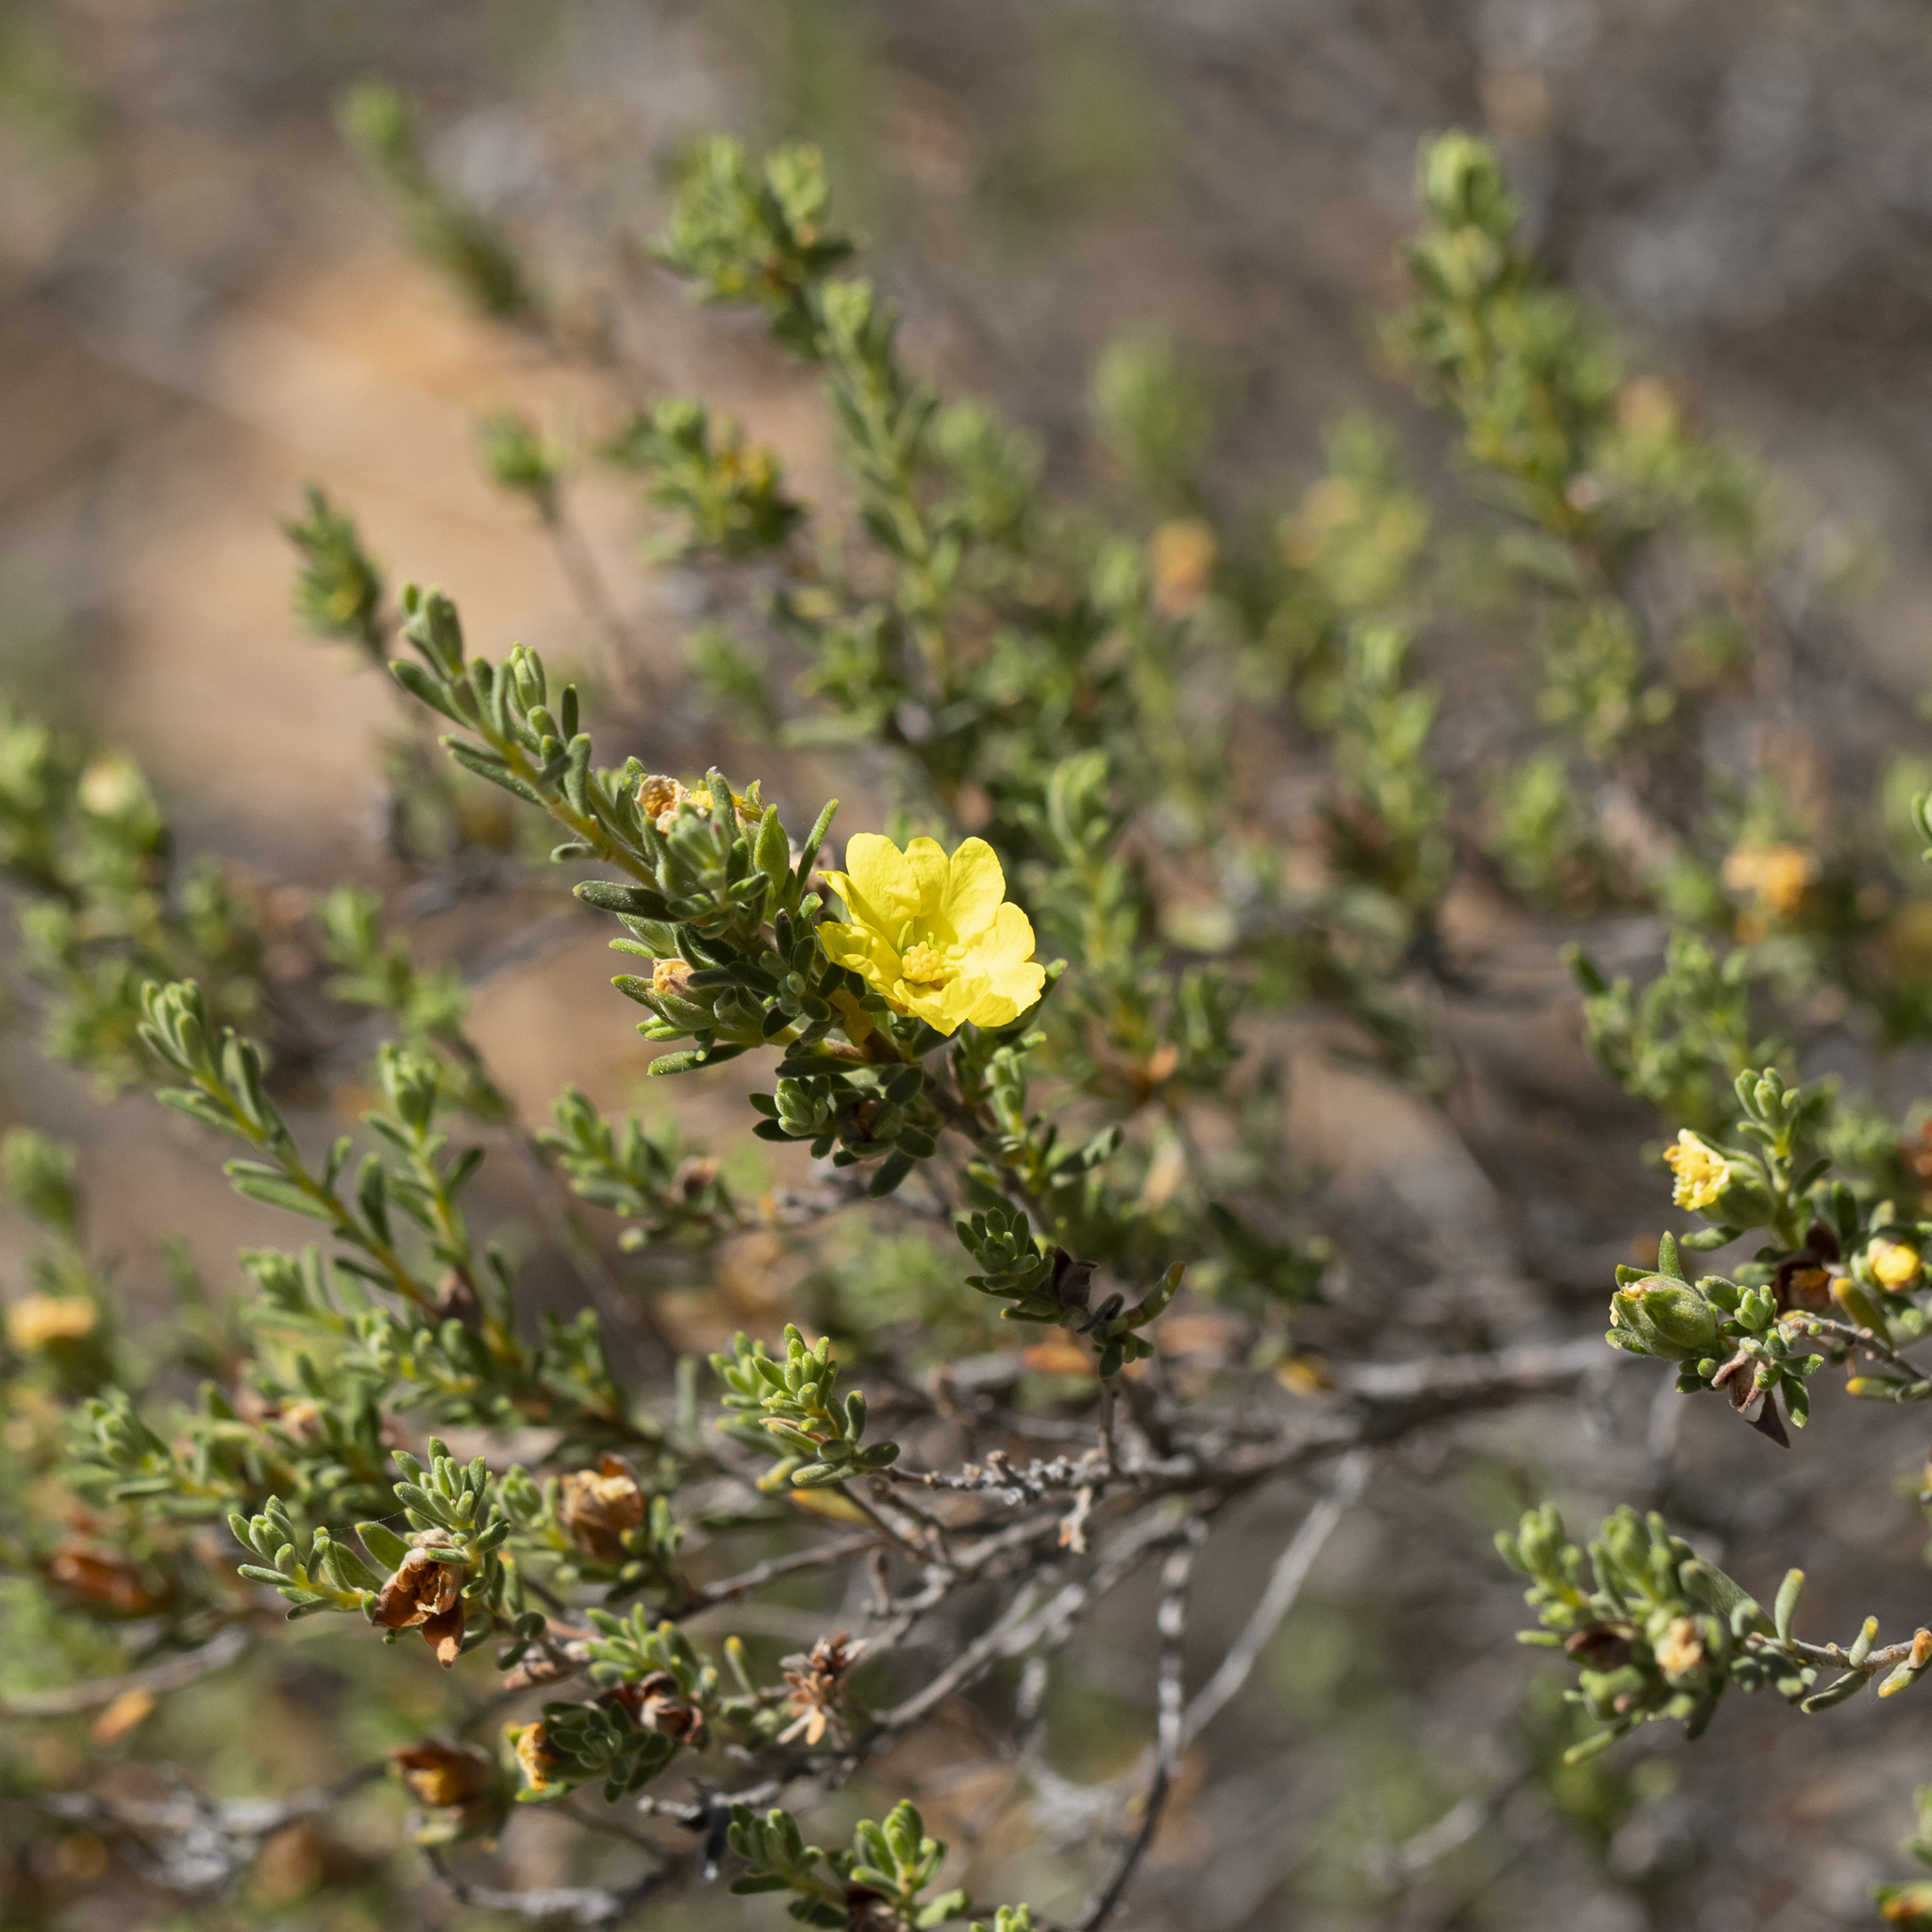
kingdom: Plantae
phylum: Tracheophyta
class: Magnoliopsida
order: Dilleniales
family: Dilleniaceae
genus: Hibbertia
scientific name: Hibbertia crinita
